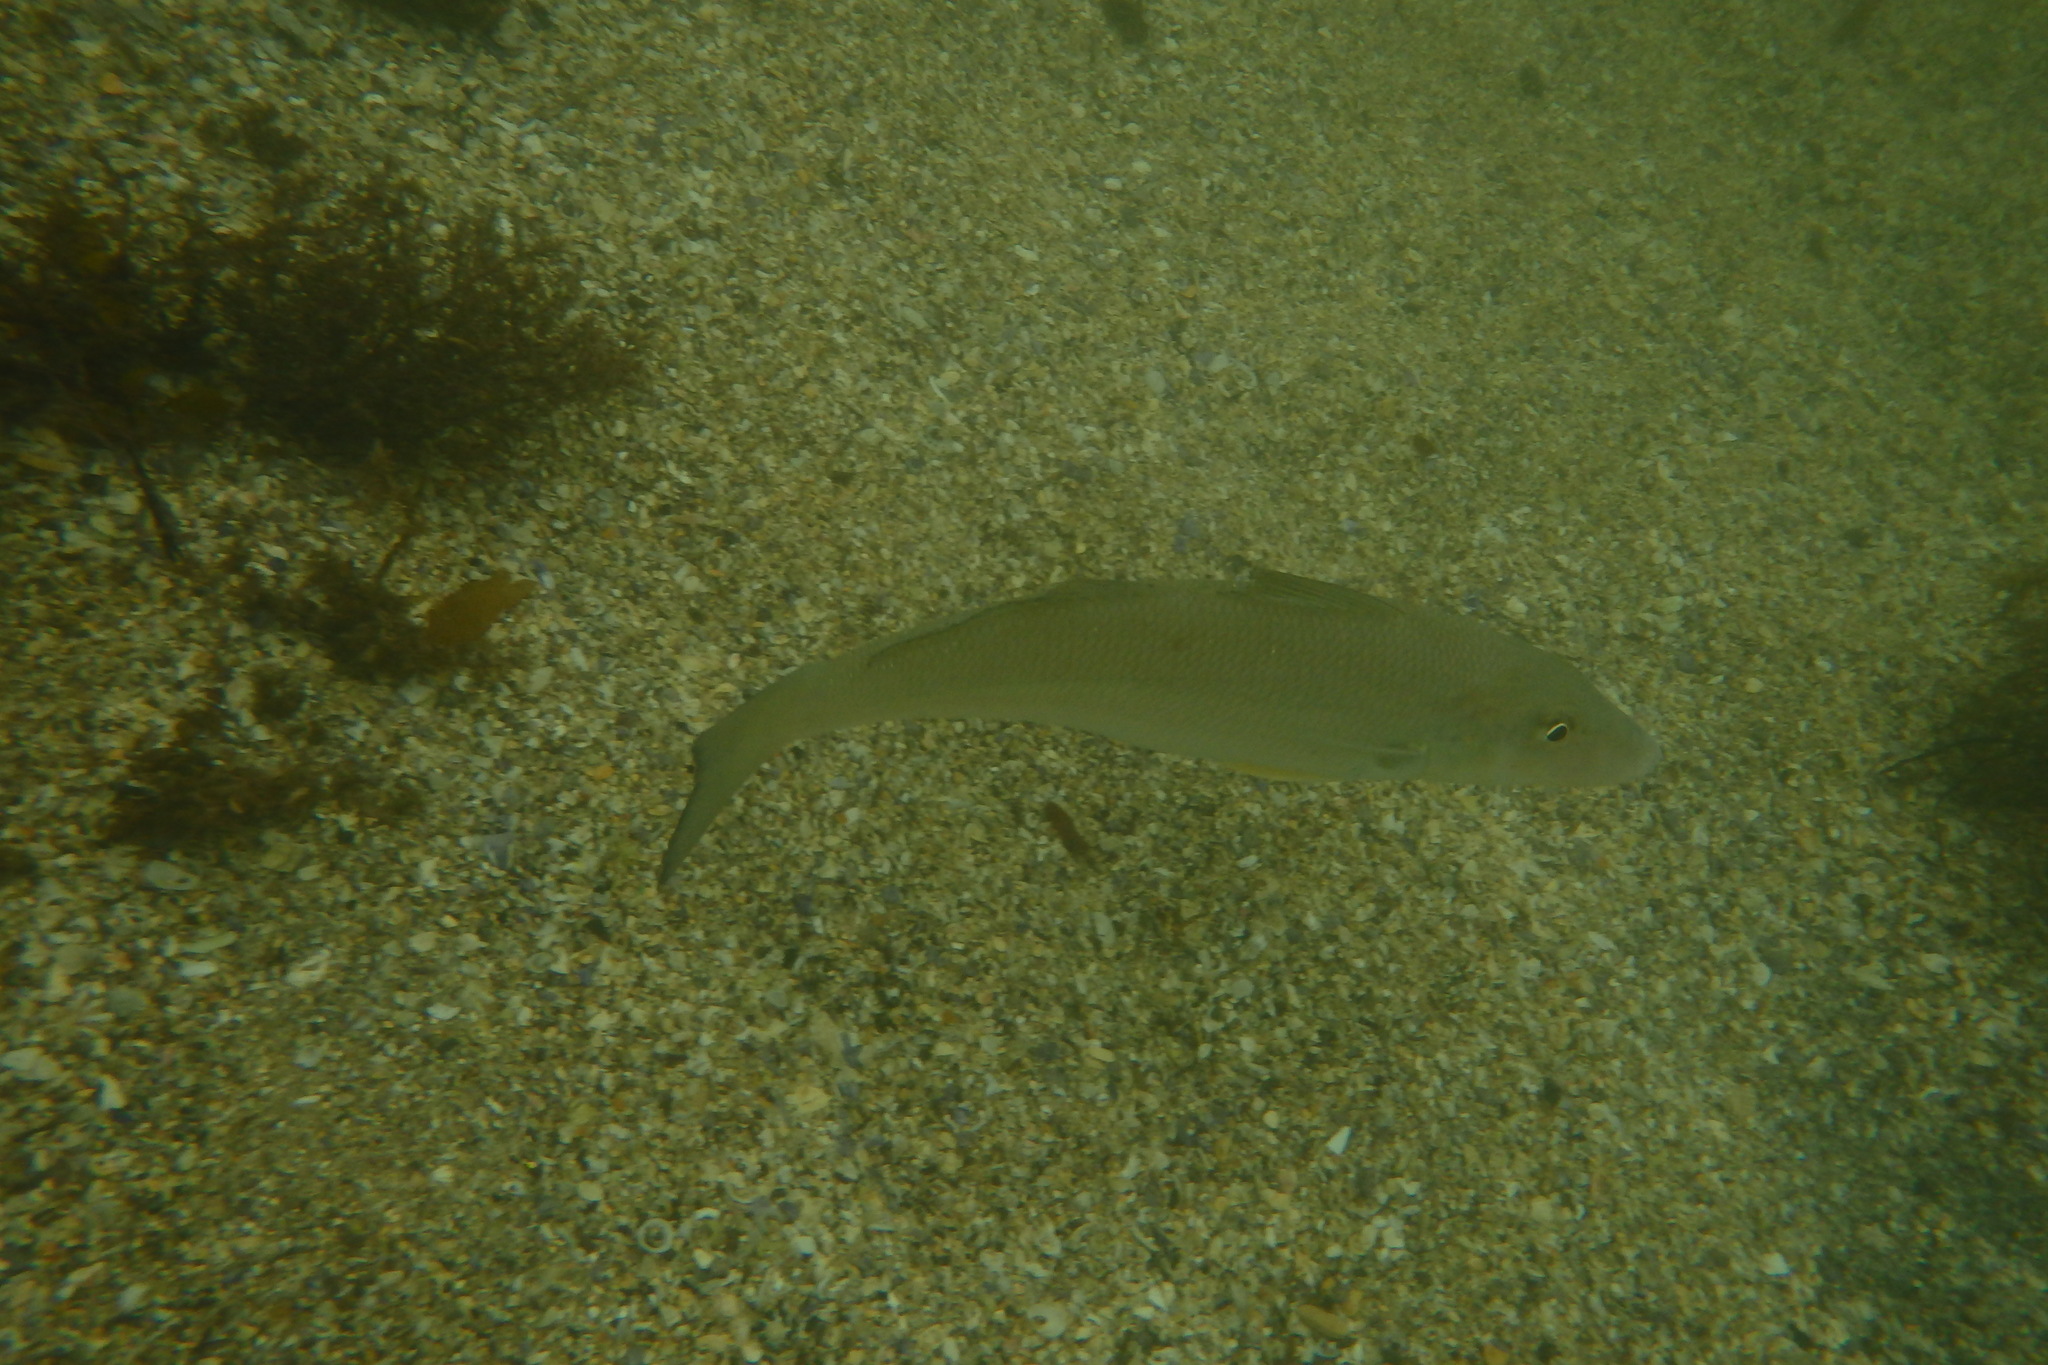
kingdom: Animalia
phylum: Chordata
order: Perciformes
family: Sillaginidae
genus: Sillago
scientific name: Sillago ciliata
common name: Sand sillago
